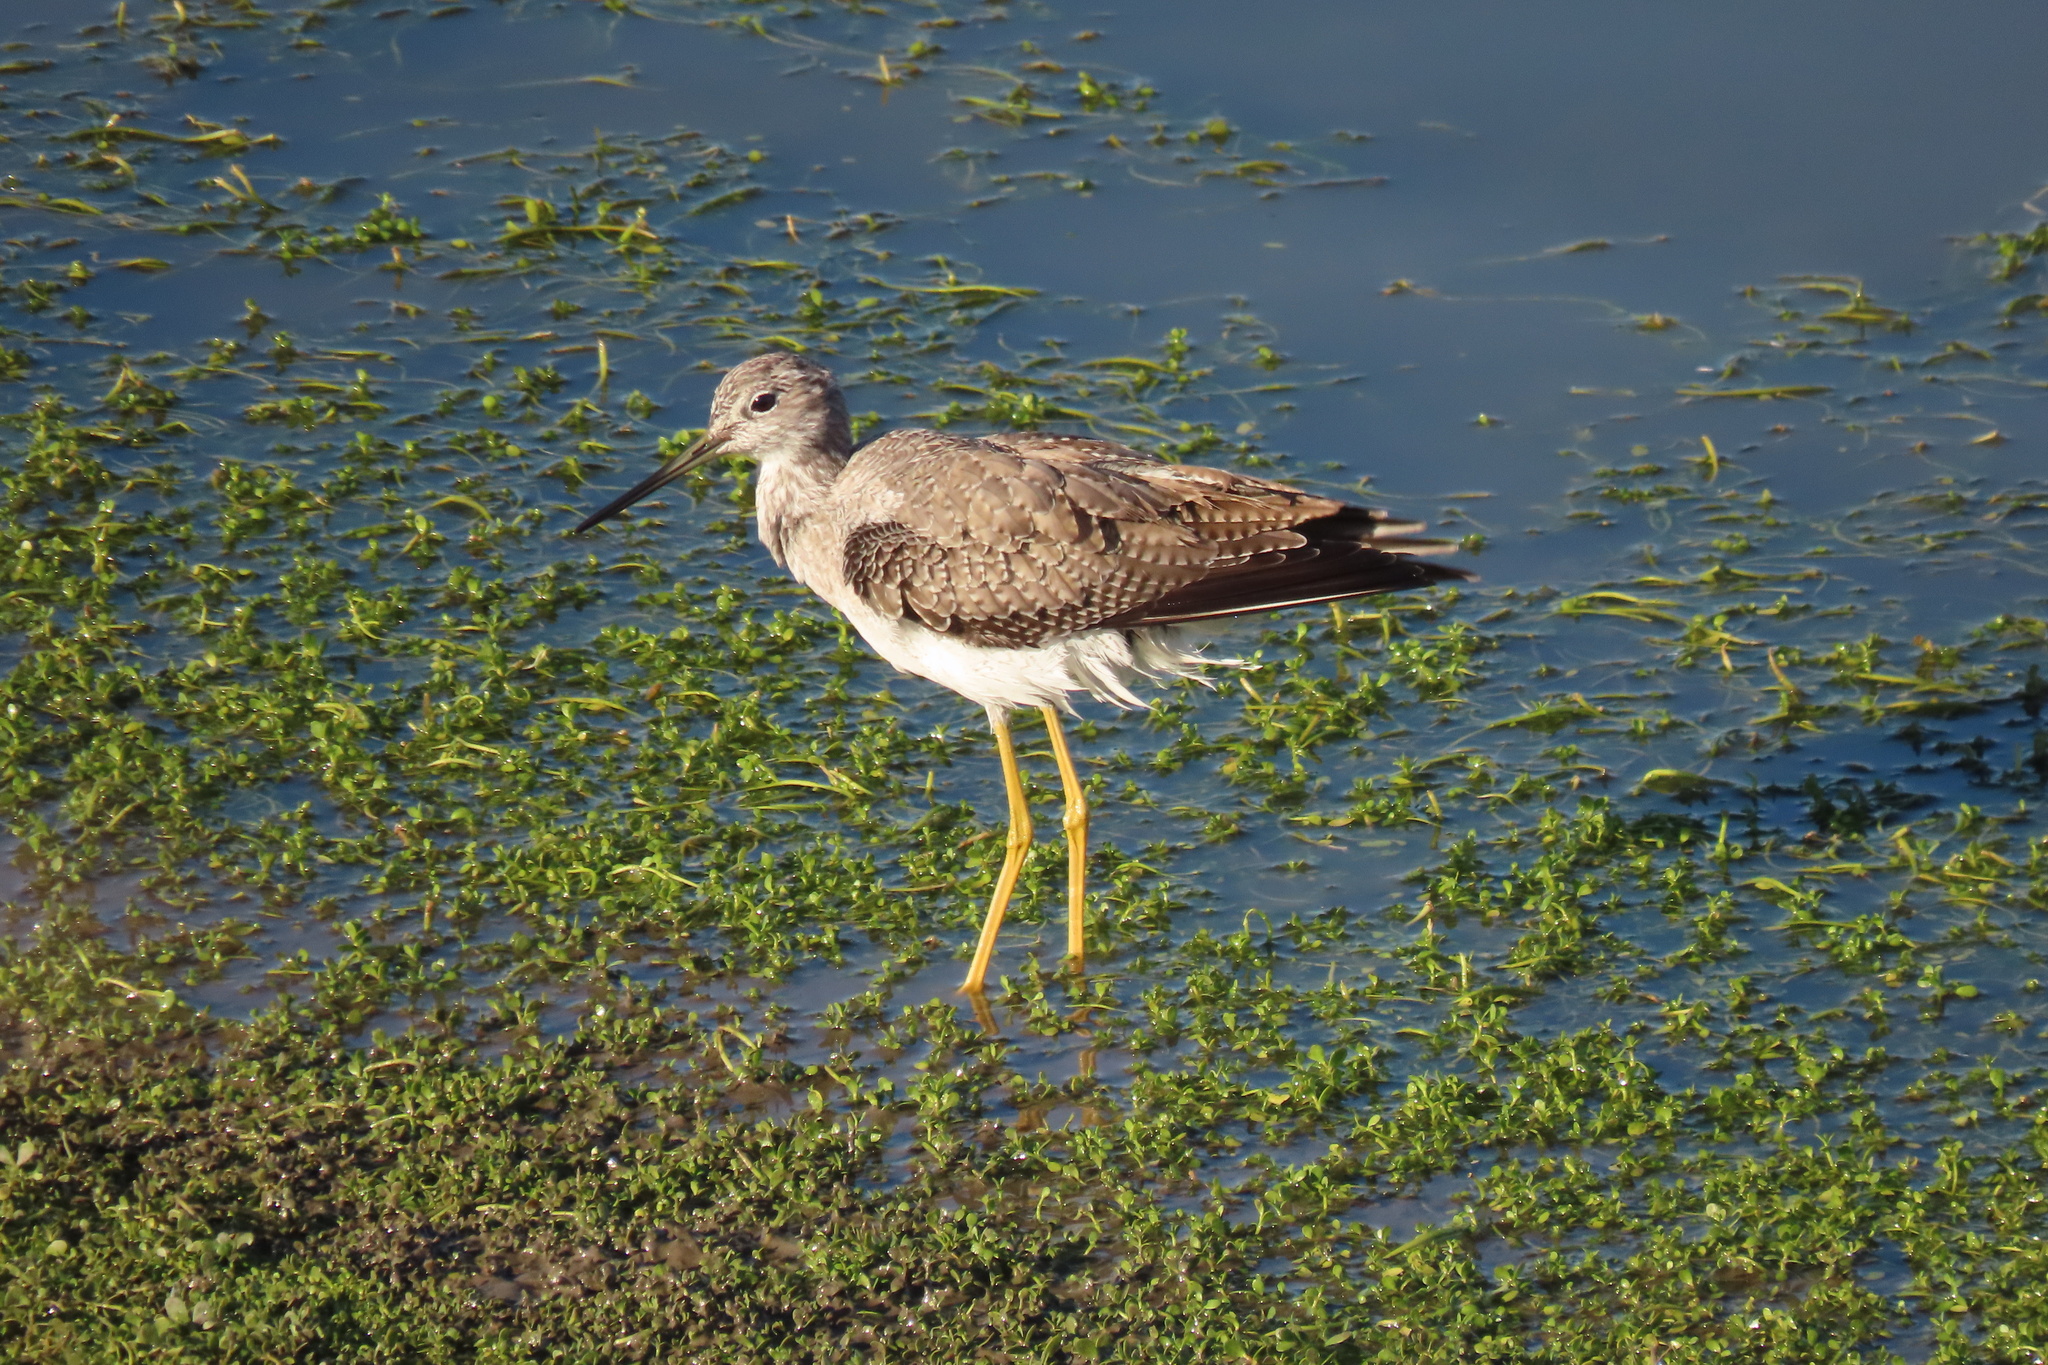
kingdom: Animalia
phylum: Chordata
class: Aves
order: Charadriiformes
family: Scolopacidae
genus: Tringa
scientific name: Tringa melanoleuca
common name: Greater yellowlegs
